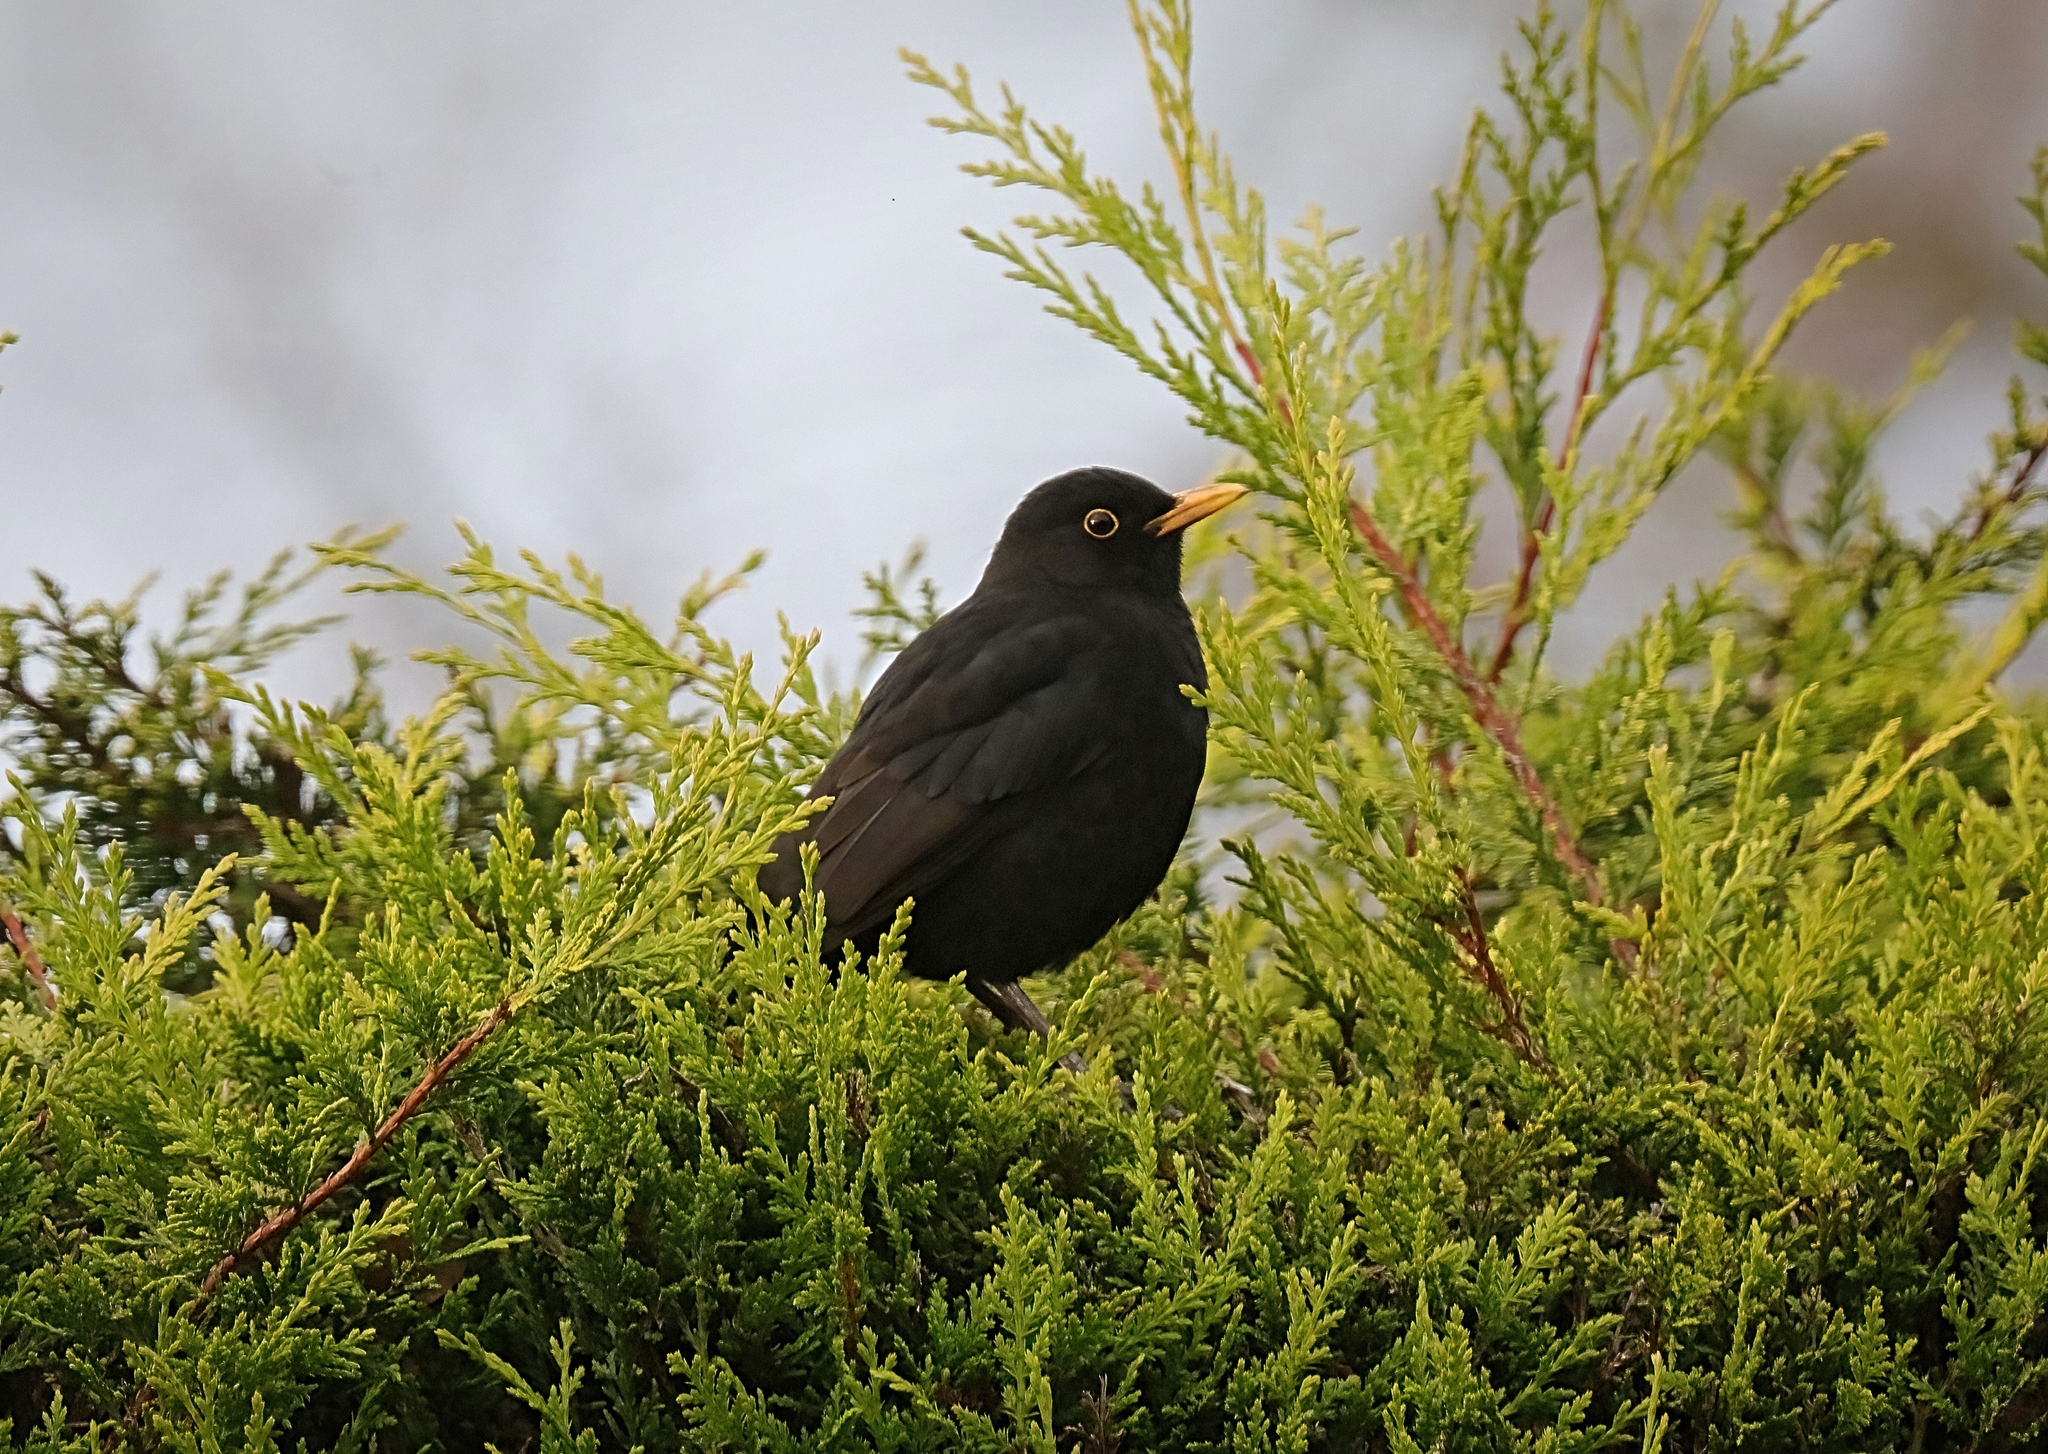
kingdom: Animalia
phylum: Chordata
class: Aves
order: Passeriformes
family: Turdidae
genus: Turdus
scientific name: Turdus merula
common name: Common blackbird
